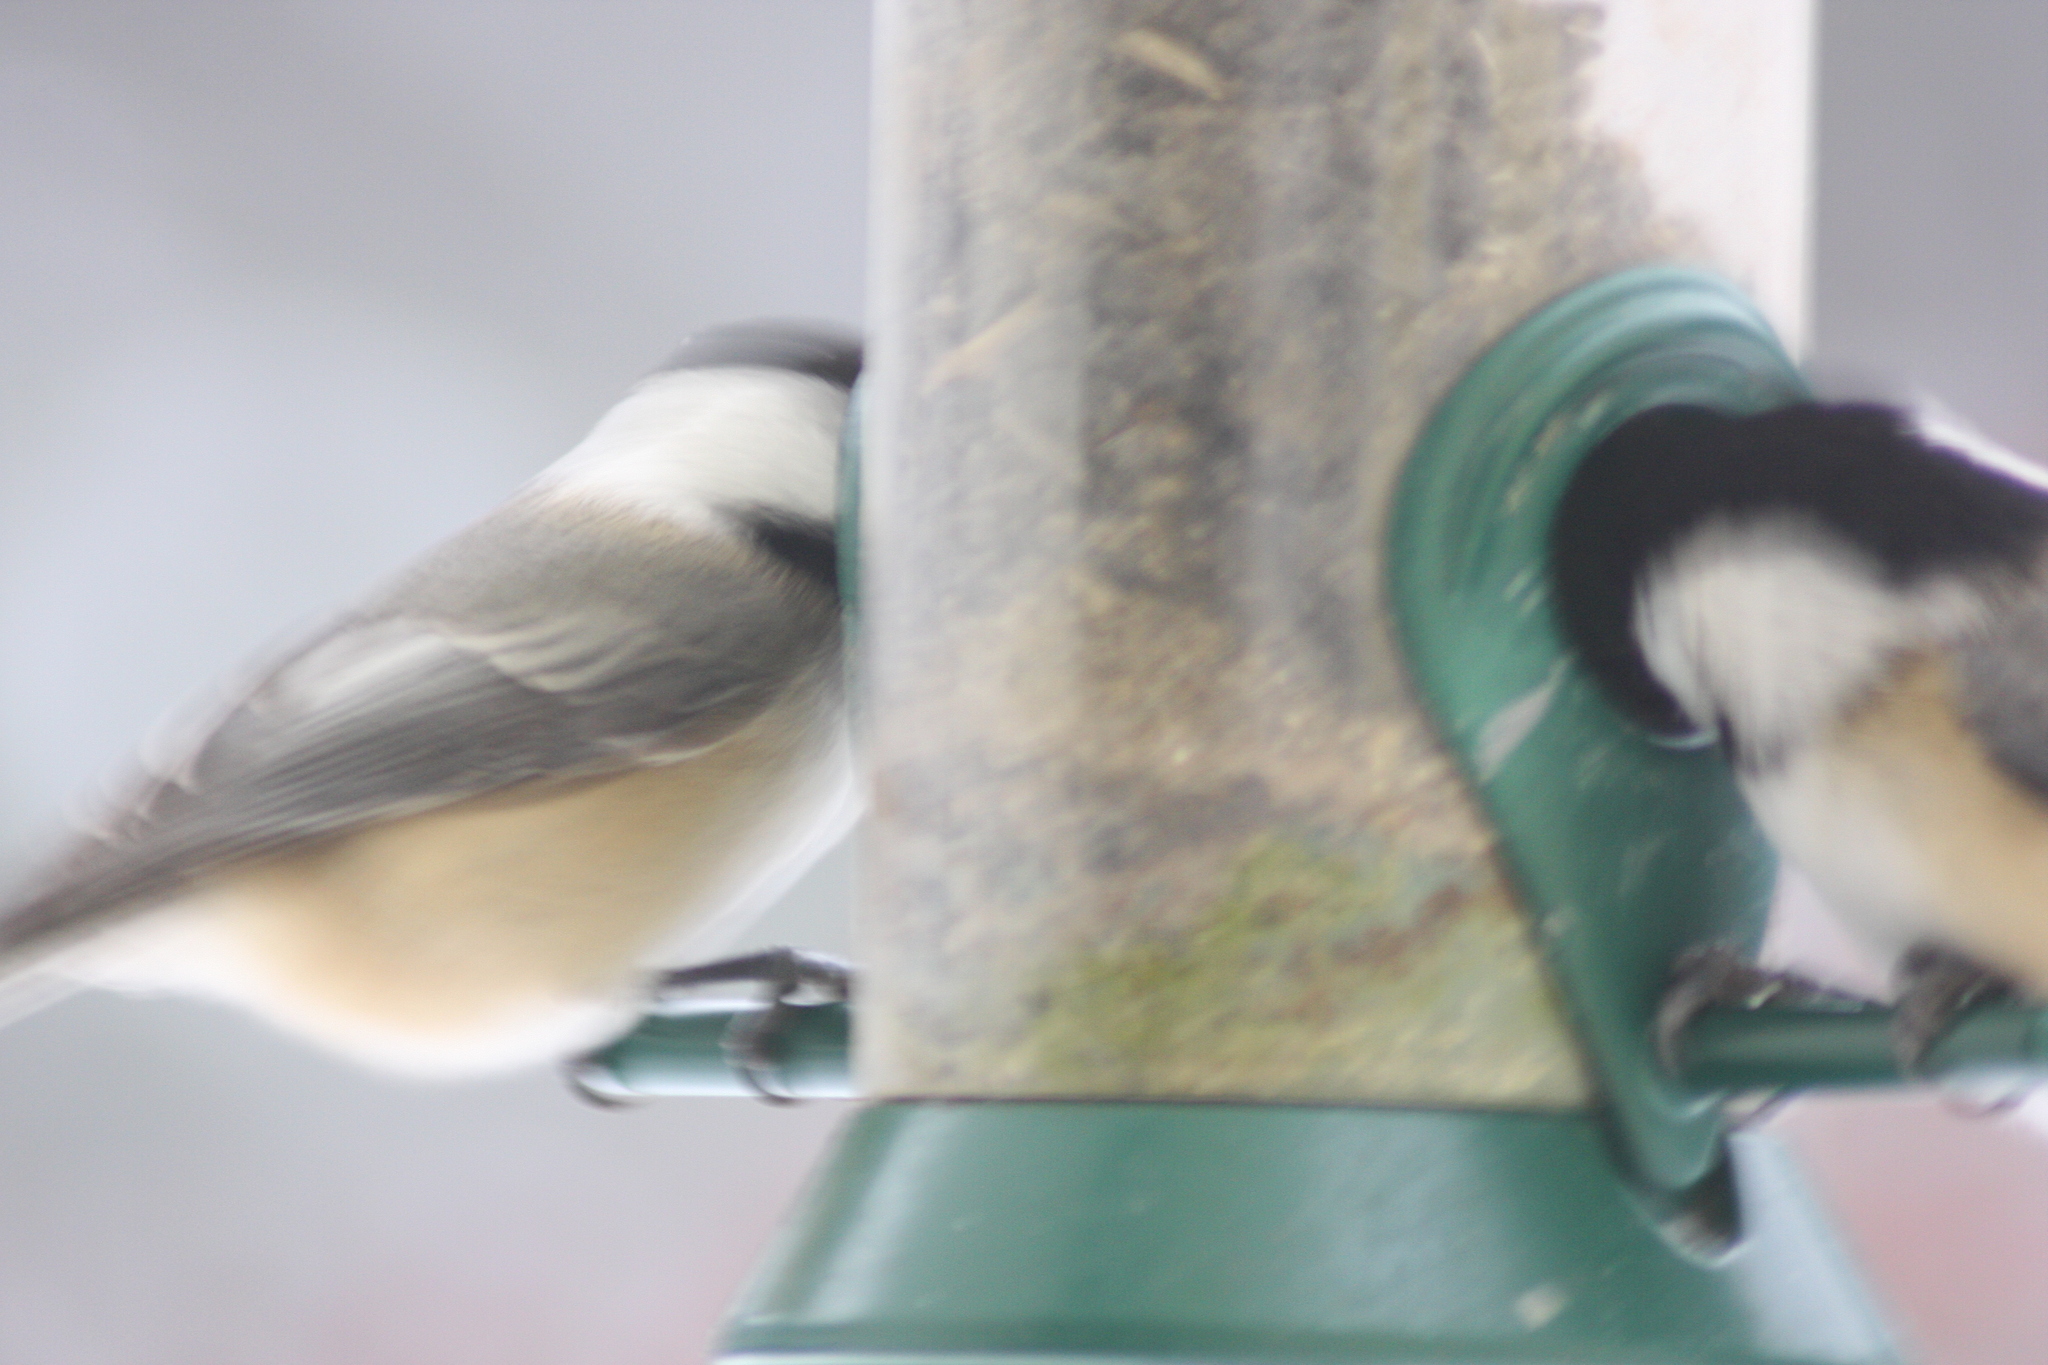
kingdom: Animalia
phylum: Chordata
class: Aves
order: Passeriformes
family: Paridae
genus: Poecile
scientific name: Poecile atricapillus
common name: Black-capped chickadee
